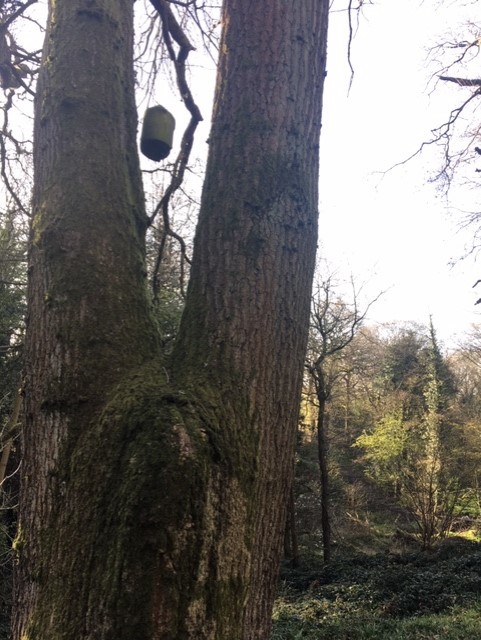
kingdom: Plantae
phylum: Tracheophyta
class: Magnoliopsida
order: Fagales
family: Fagaceae
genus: Quercus
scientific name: Quercus robur
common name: Pedunculate oak
